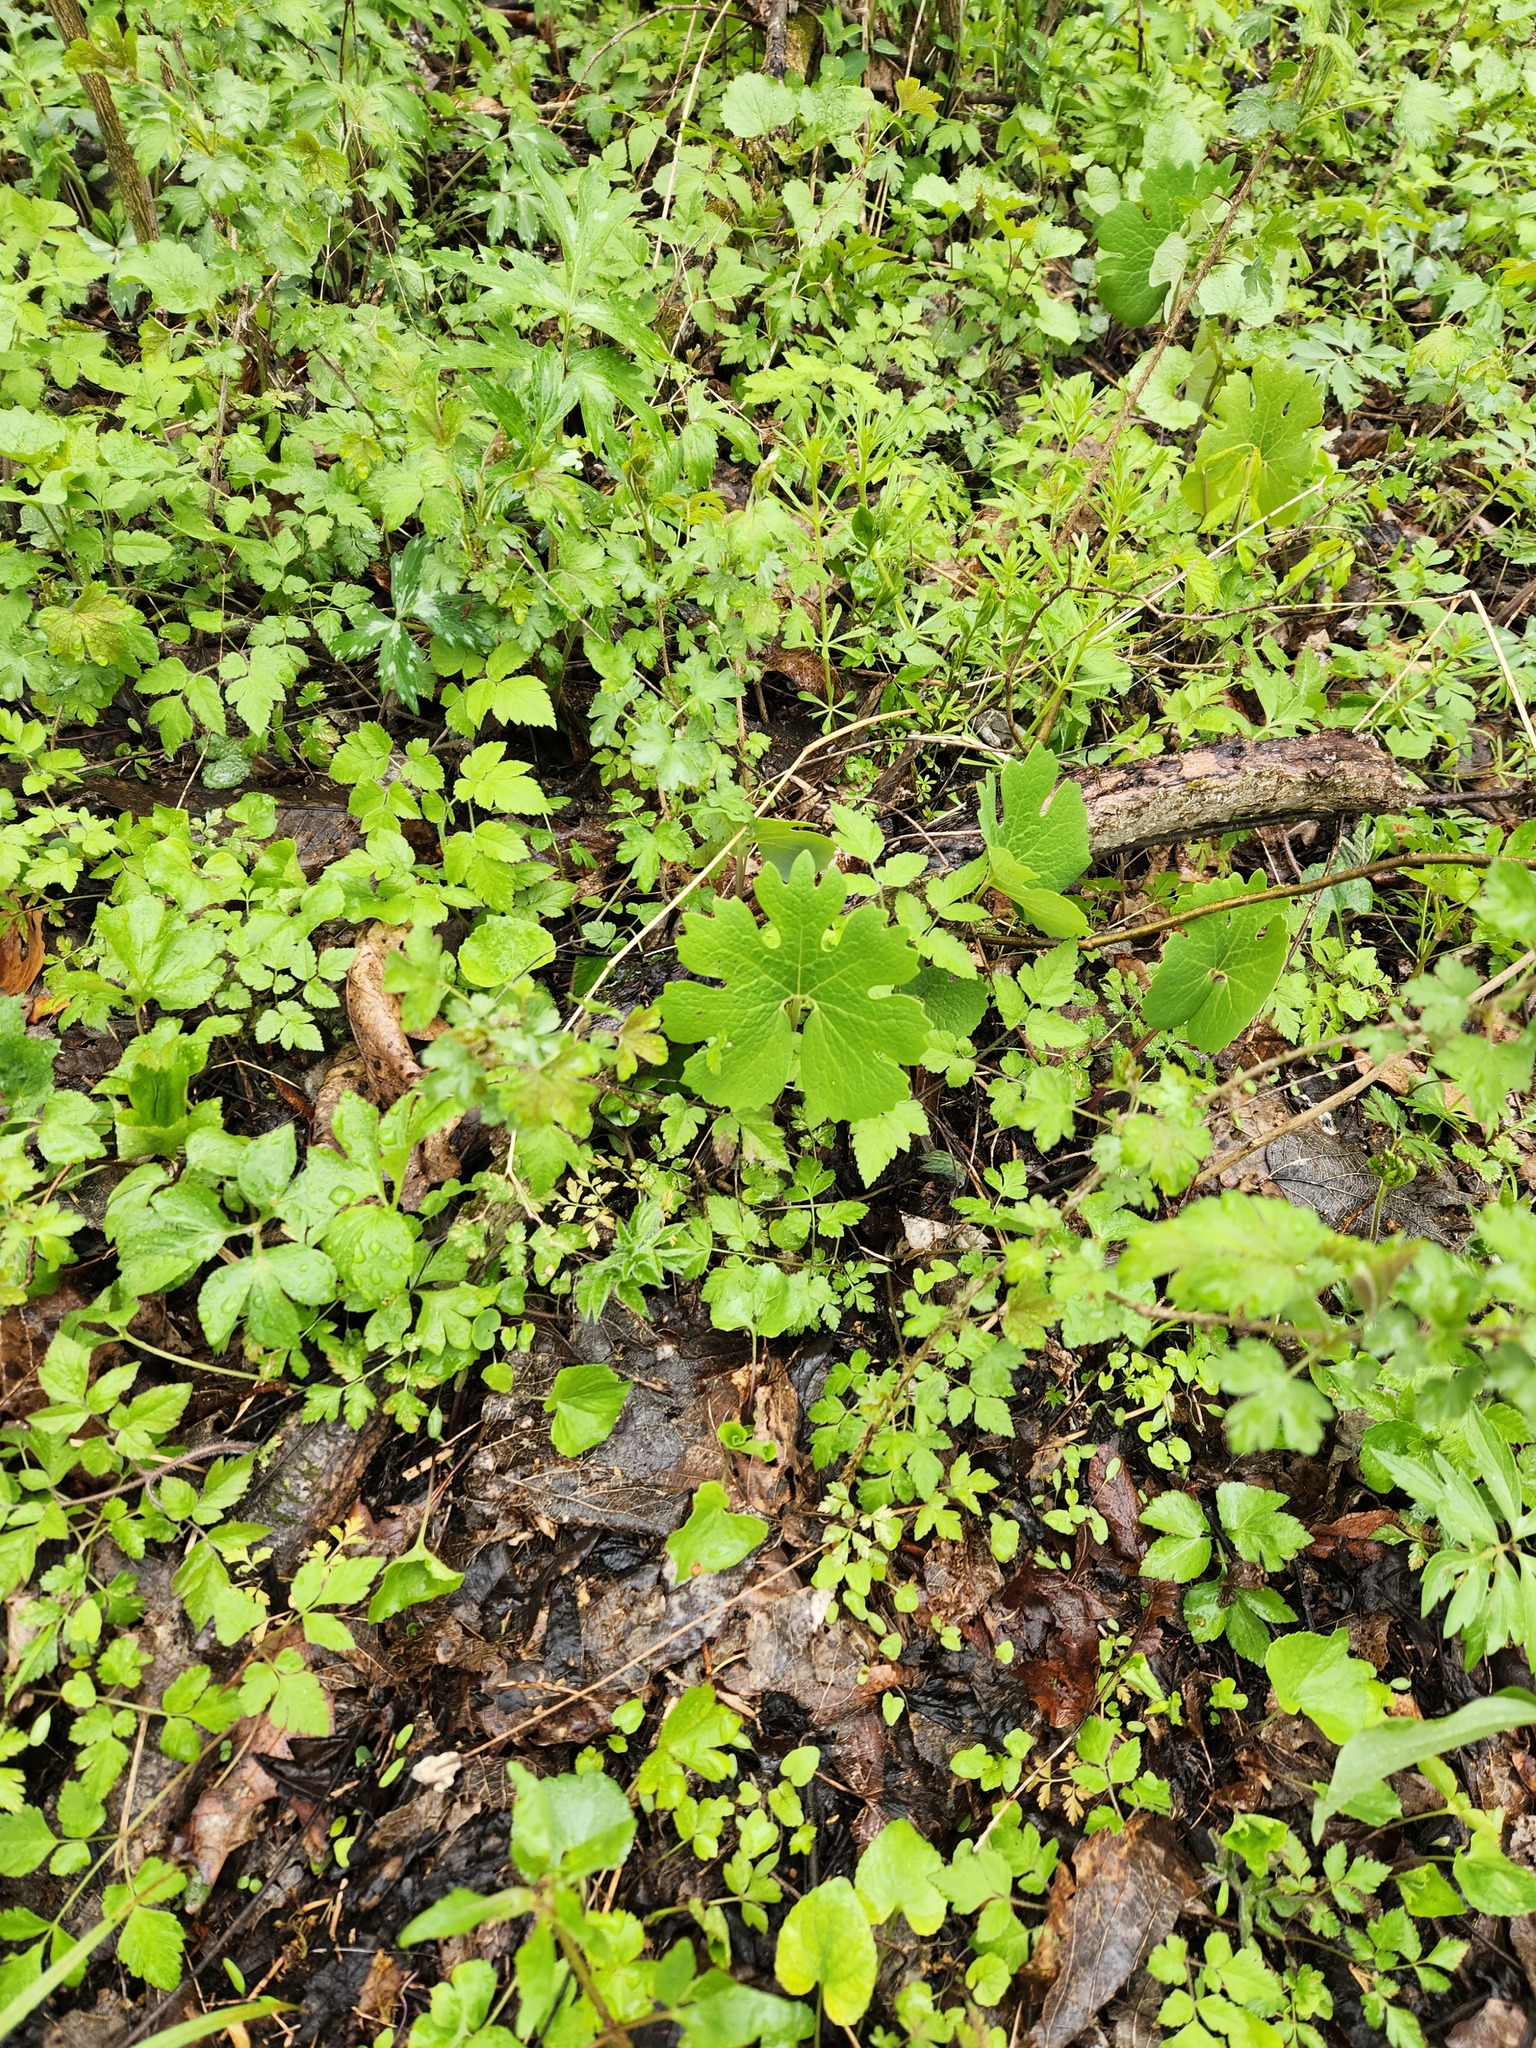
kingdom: Plantae
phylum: Tracheophyta
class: Magnoliopsida
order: Ranunculales
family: Papaveraceae
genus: Sanguinaria
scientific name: Sanguinaria canadensis
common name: Bloodroot
